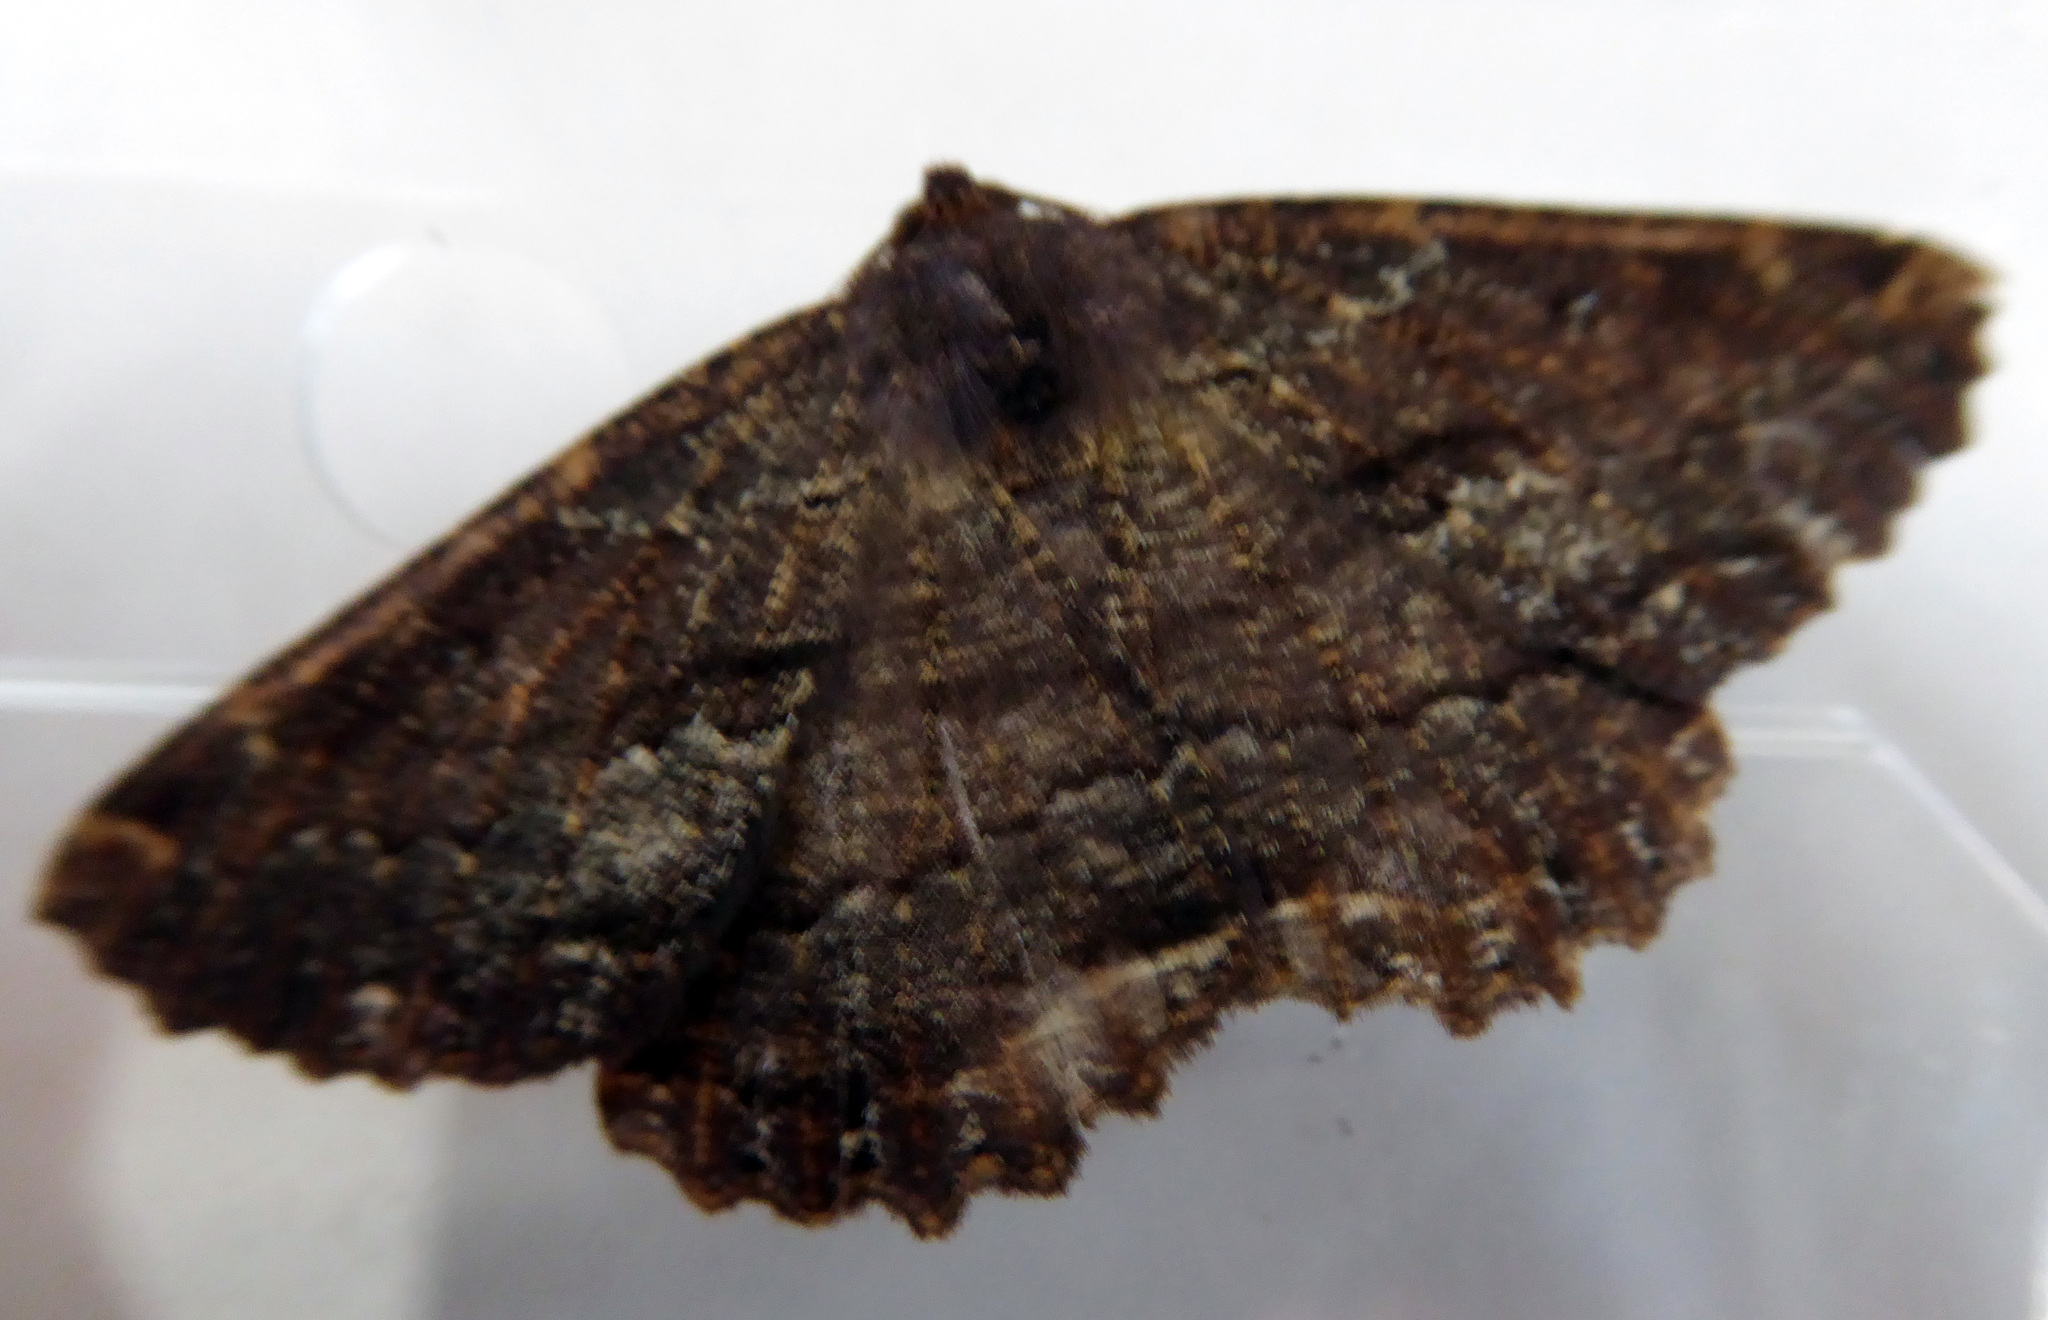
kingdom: Animalia
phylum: Arthropoda
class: Insecta
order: Lepidoptera
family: Geometridae
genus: Gellonia
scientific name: Gellonia dejectaria
